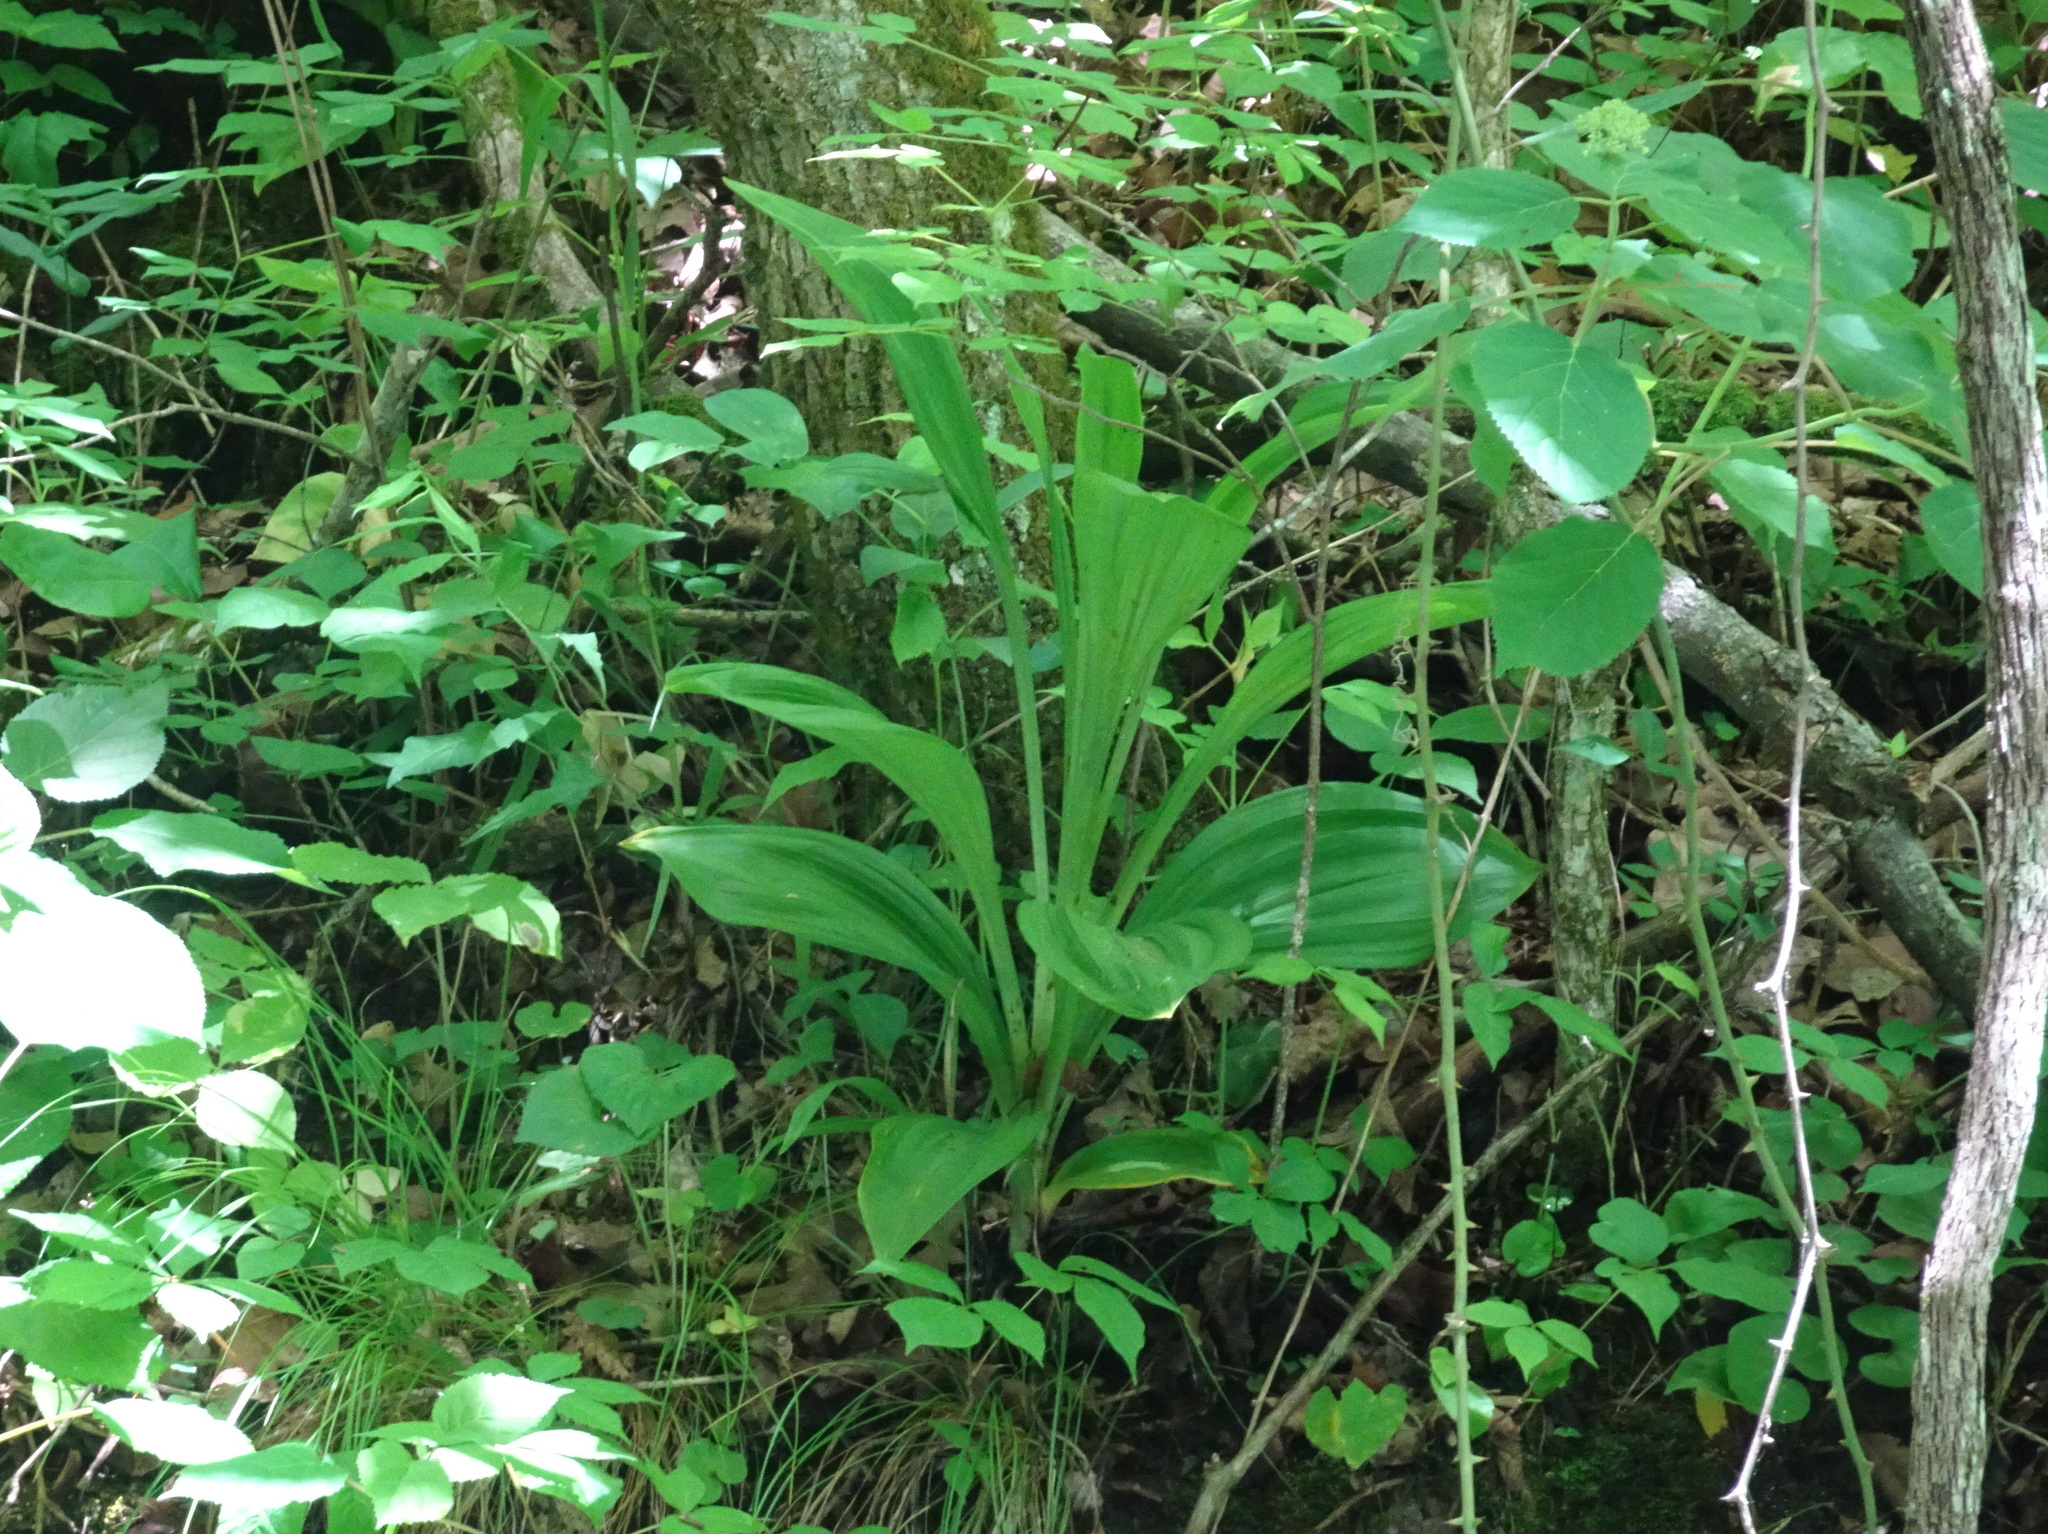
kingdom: Plantae
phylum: Tracheophyta
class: Liliopsida
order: Liliales
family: Melanthiaceae
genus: Veratrum
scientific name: Veratrum woodii
